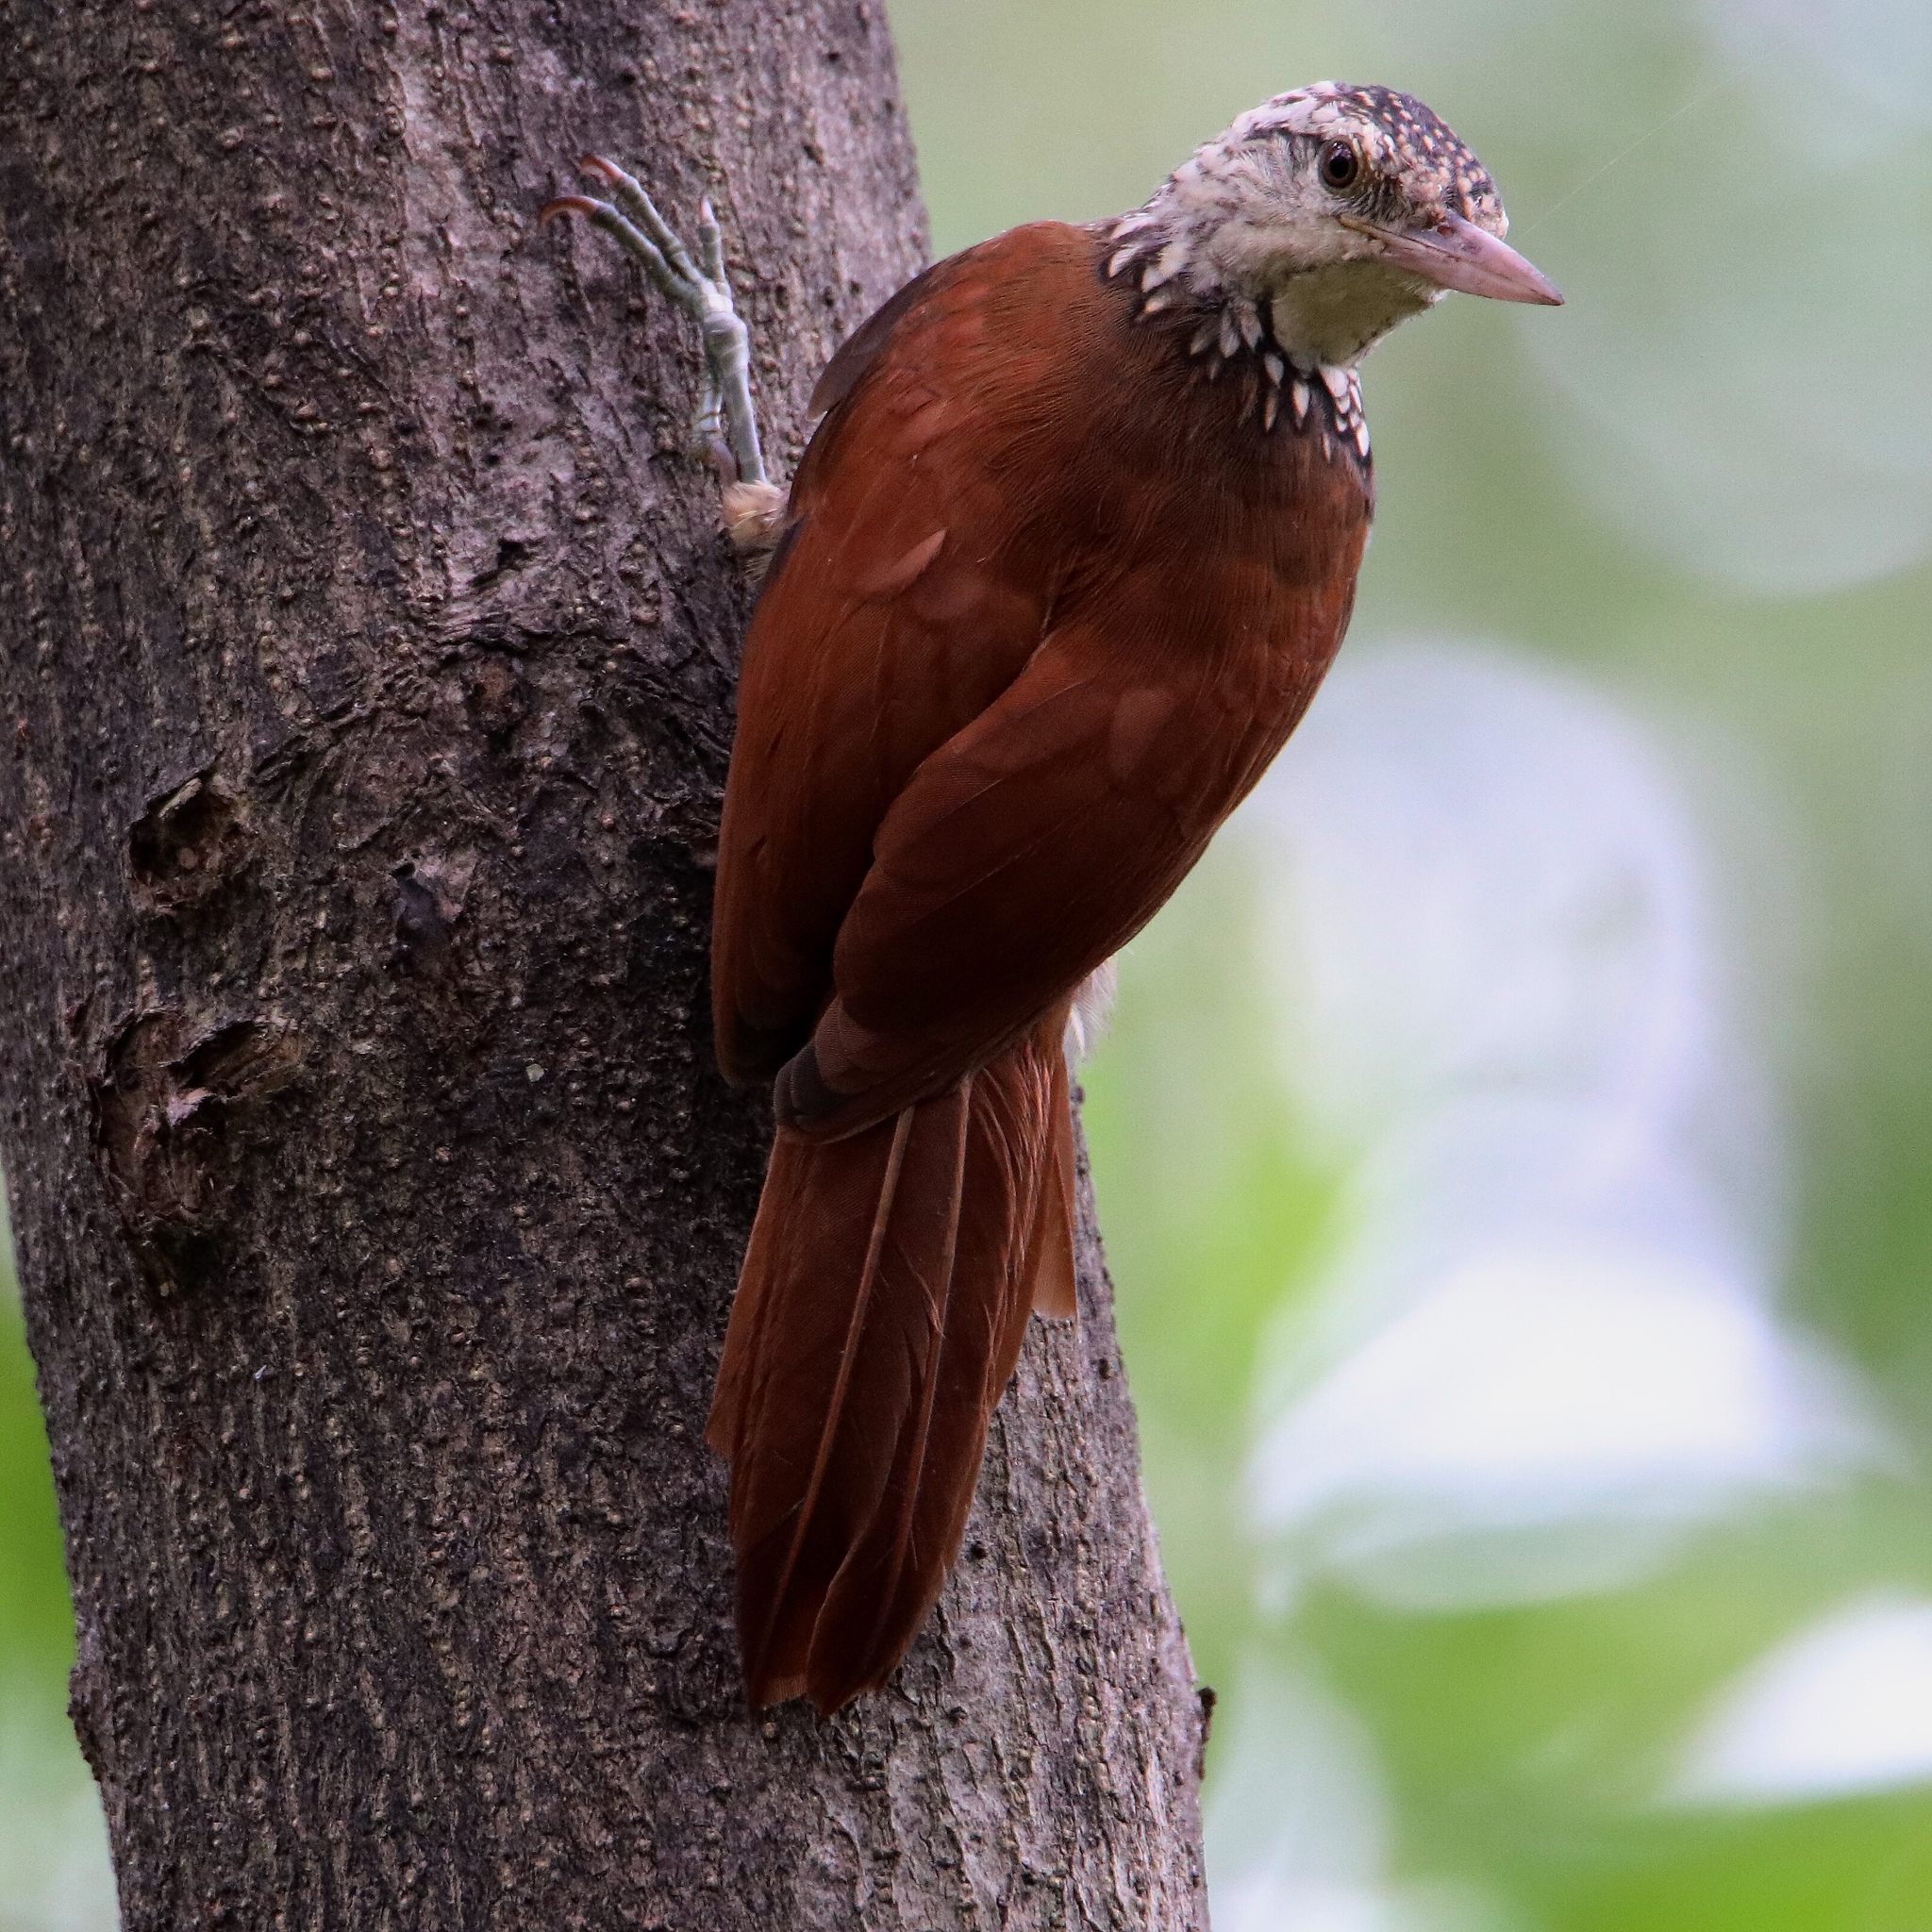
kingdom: Animalia
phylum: Chordata
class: Aves
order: Passeriformes
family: Furnariidae
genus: Xiphorhynchus
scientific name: Xiphorhynchus picus
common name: Straight-billed woodcreeper
